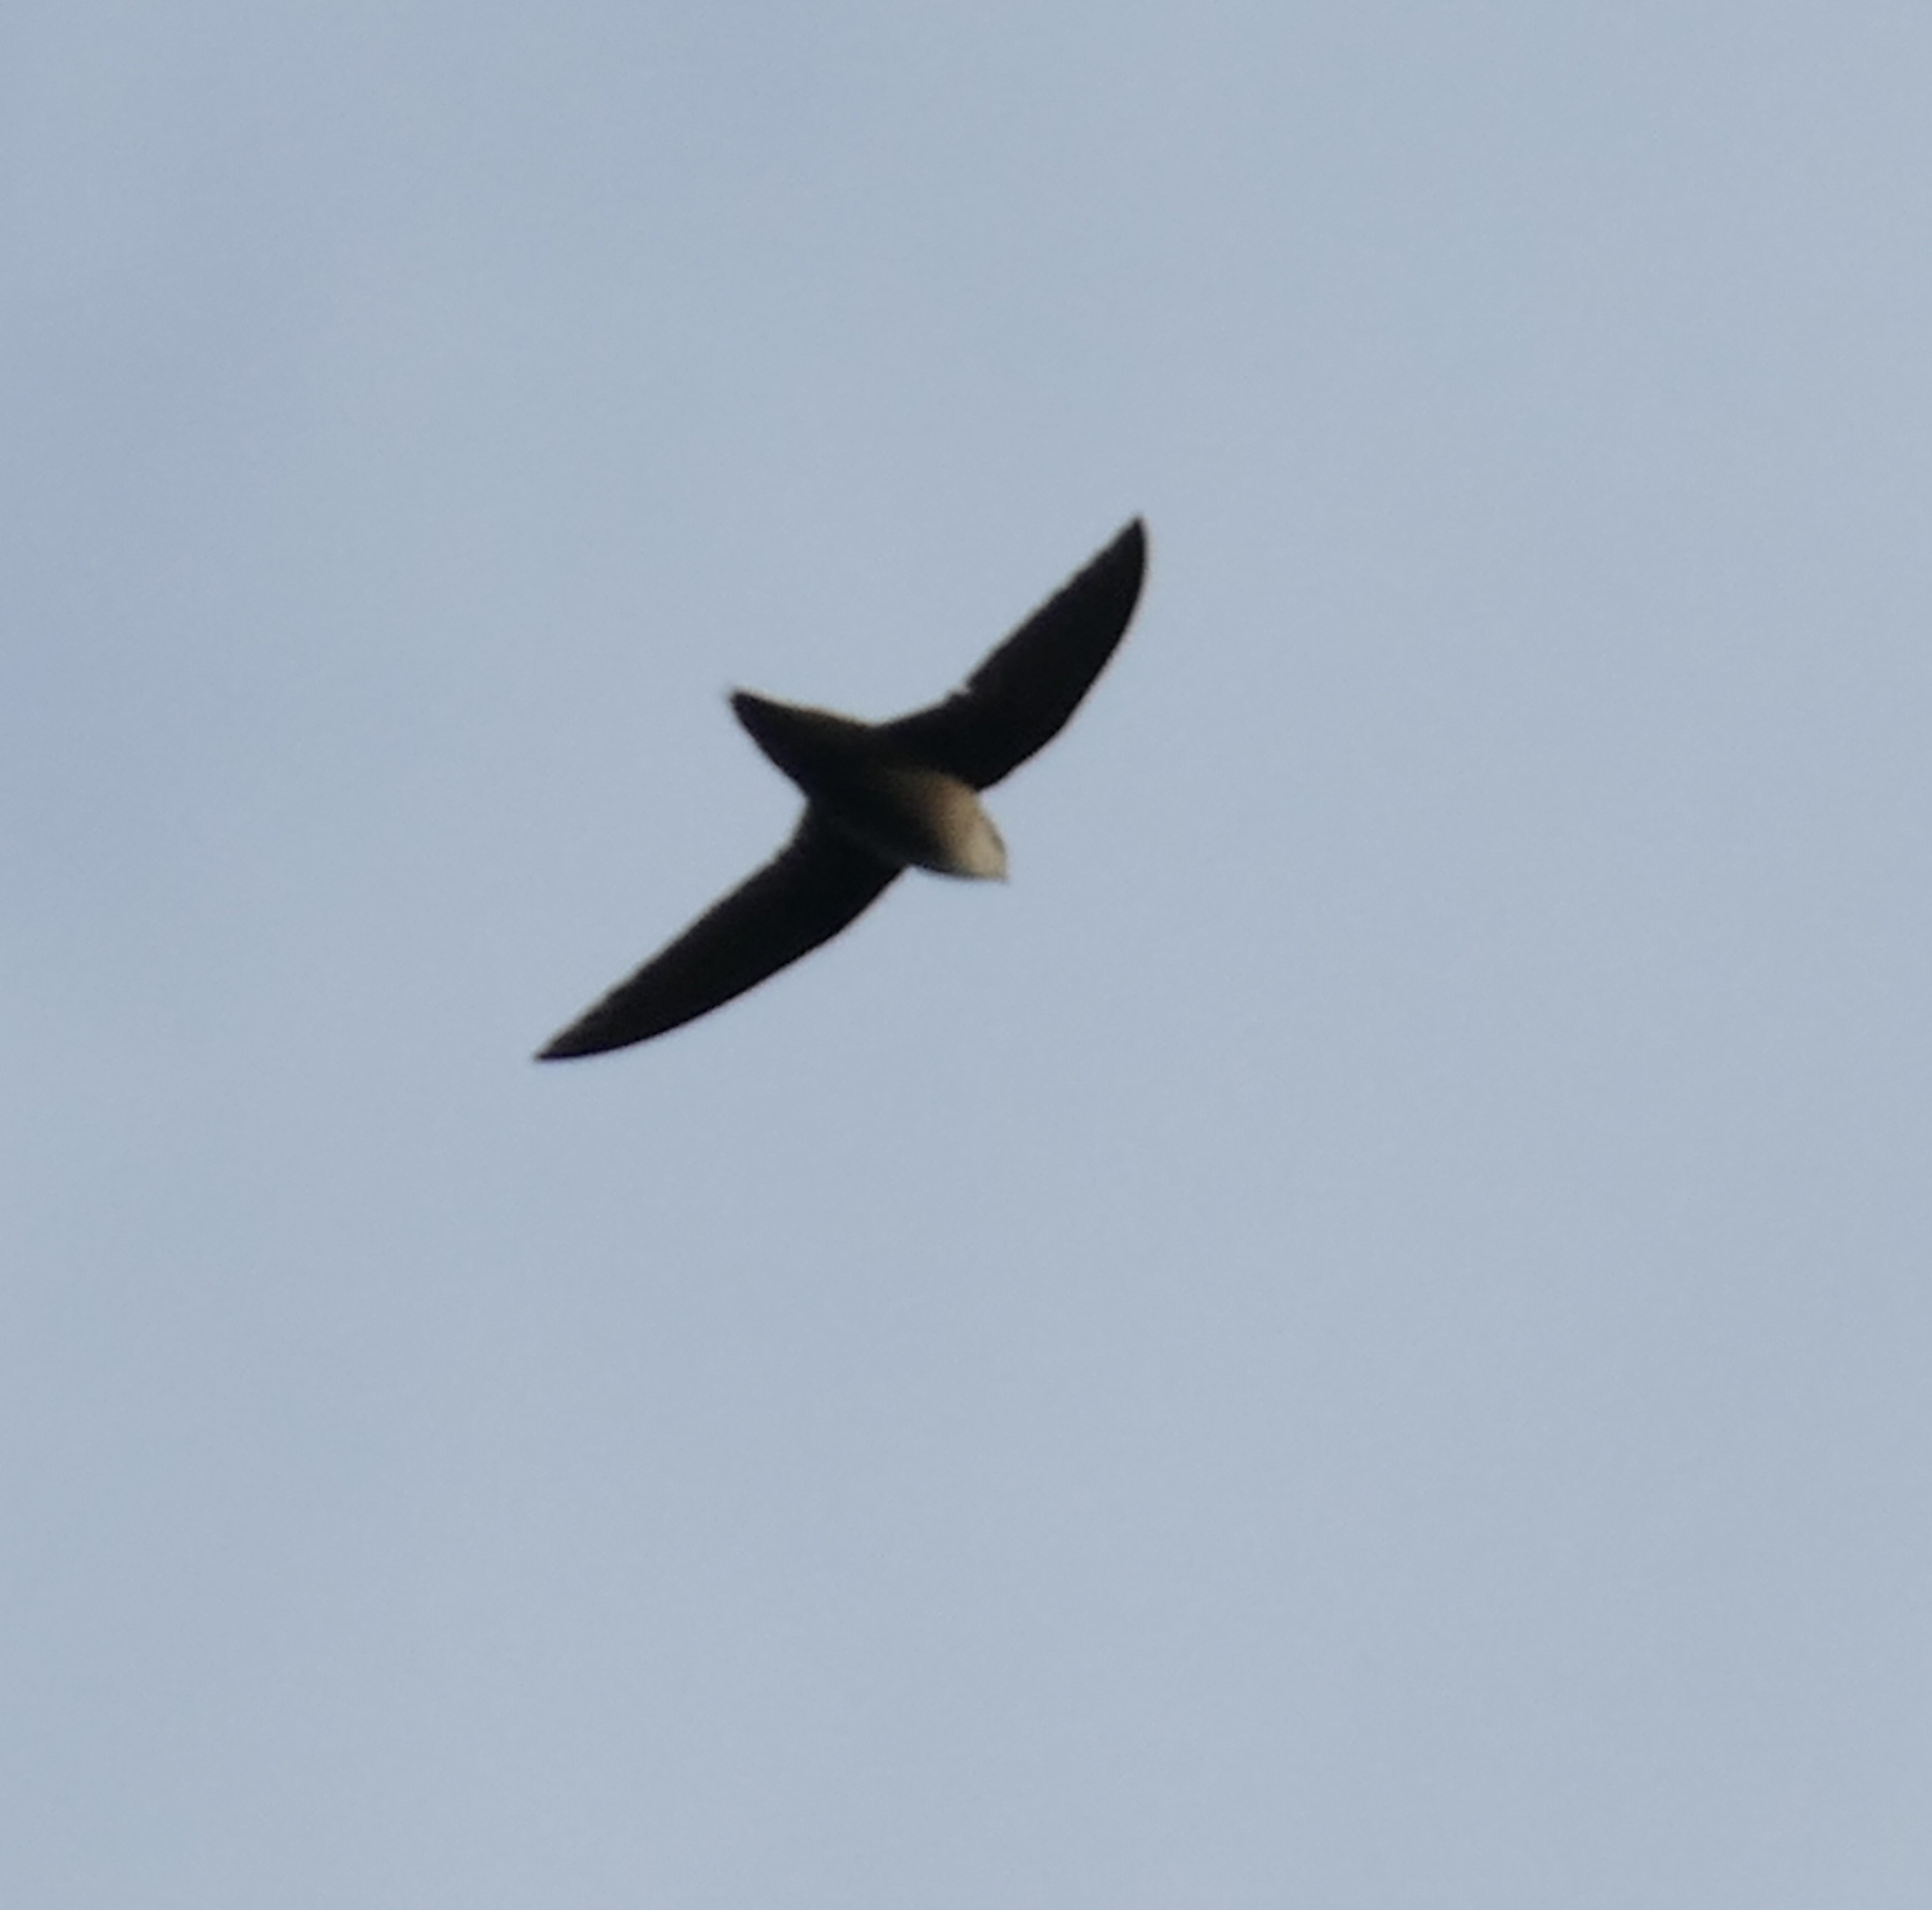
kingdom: Animalia
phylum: Chordata
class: Aves
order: Apodiformes
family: Apodidae
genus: Chaetura
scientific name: Chaetura pelagica
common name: Chimney swift
